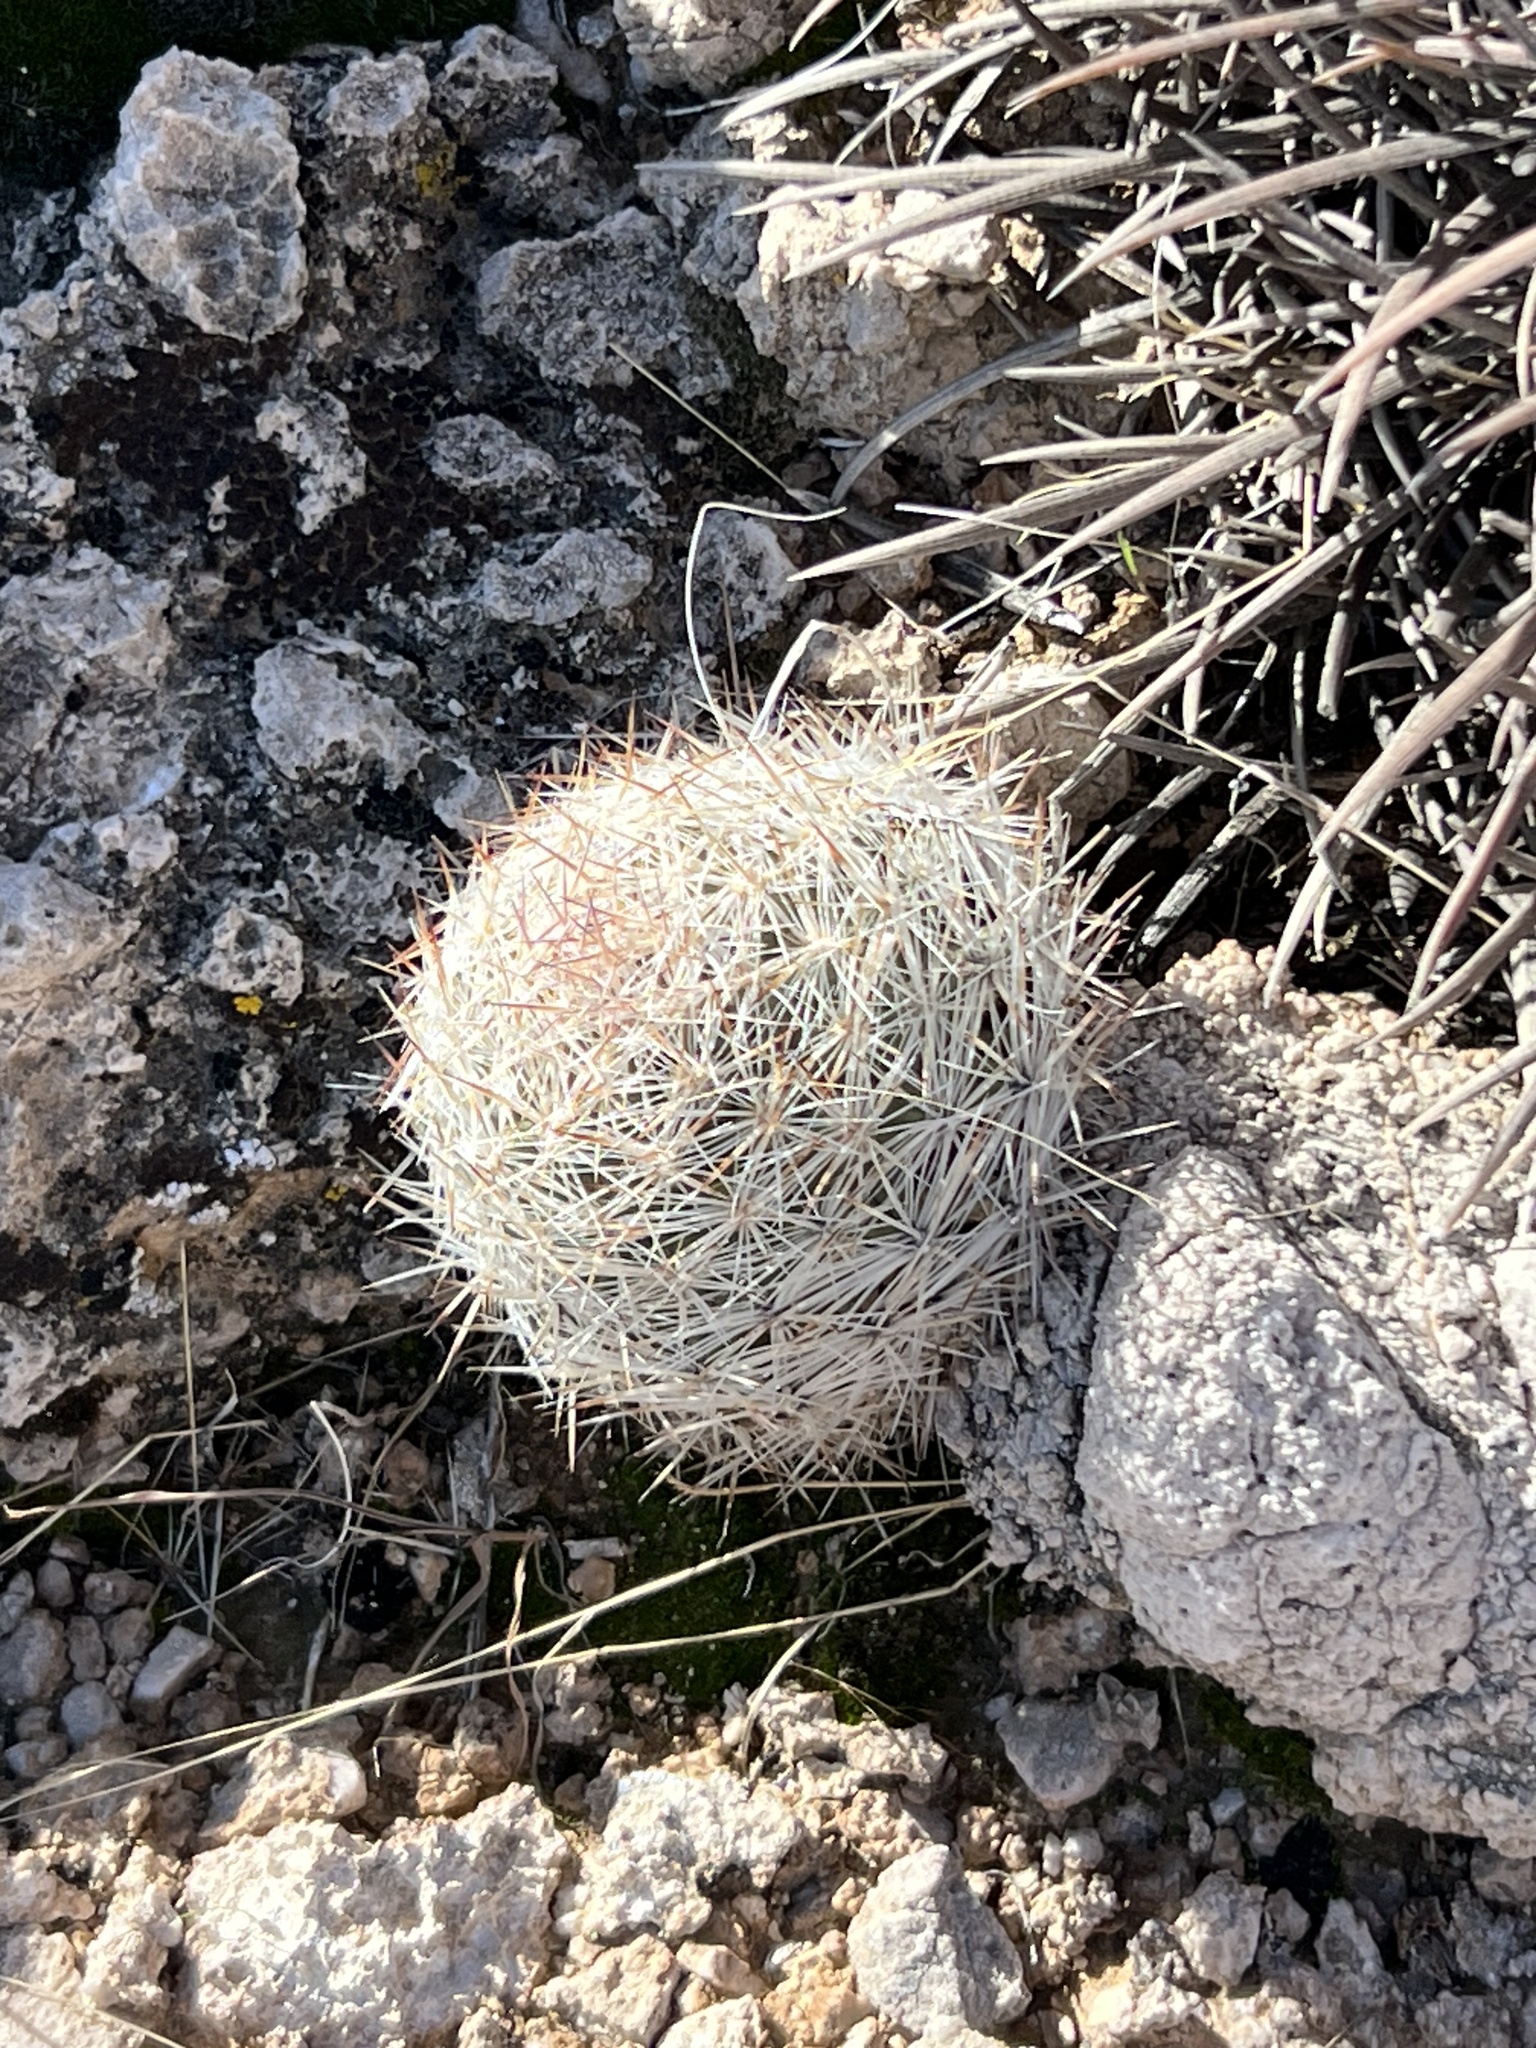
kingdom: Plantae
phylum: Tracheophyta
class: Magnoliopsida
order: Caryophyllales
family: Cactaceae
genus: Pelecyphora
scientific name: Pelecyphora dasyacantha
